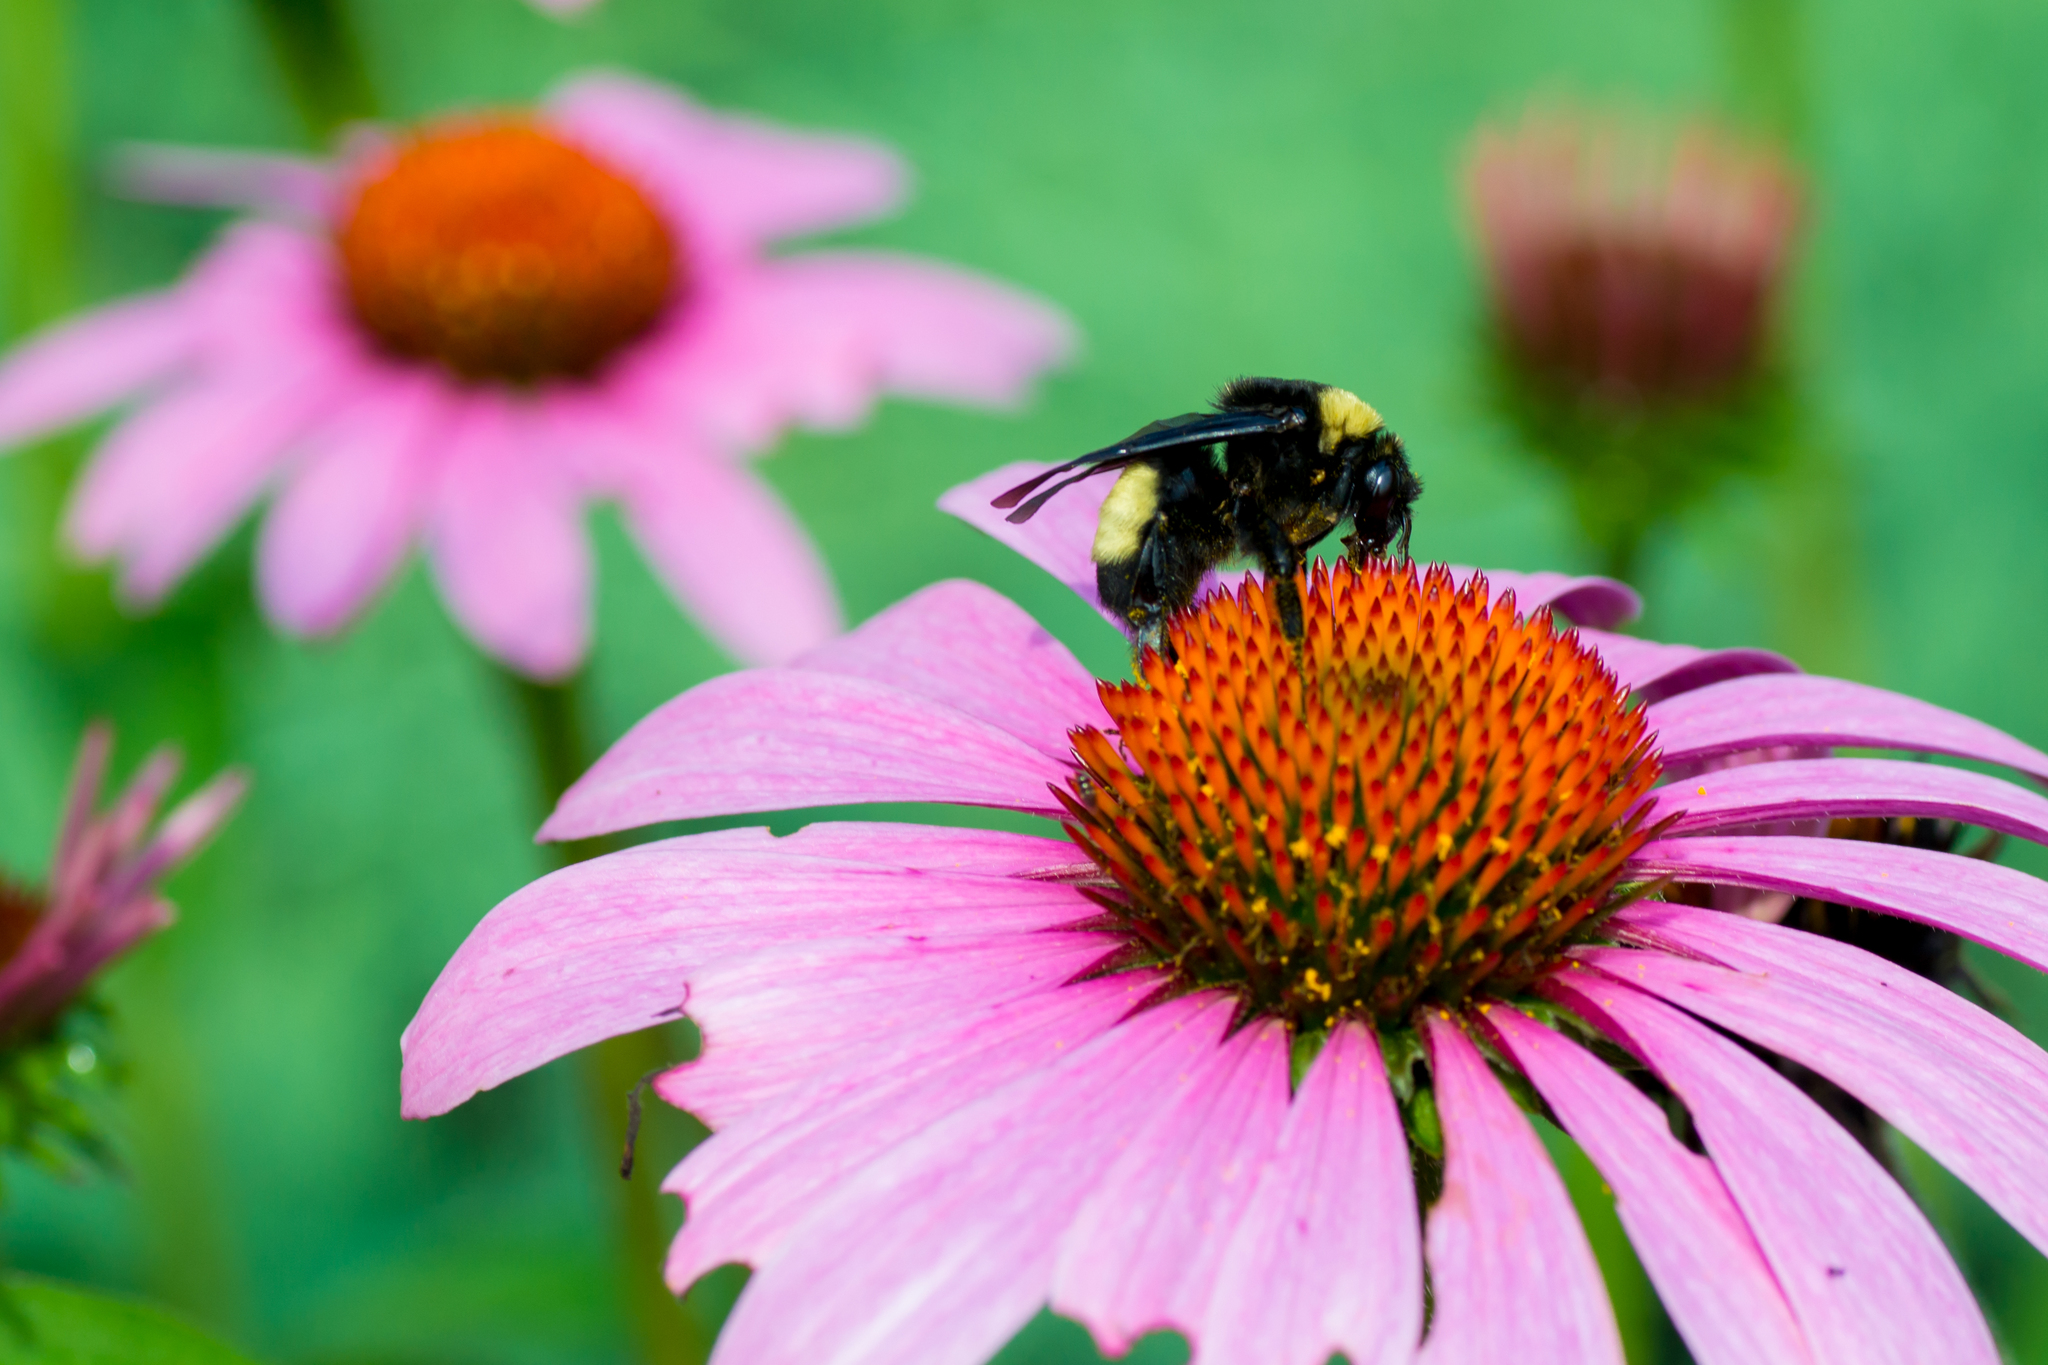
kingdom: Animalia
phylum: Arthropoda
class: Insecta
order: Hymenoptera
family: Apidae
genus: Bombus
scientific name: Bombus auricomus
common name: Black and gold bumble bee
